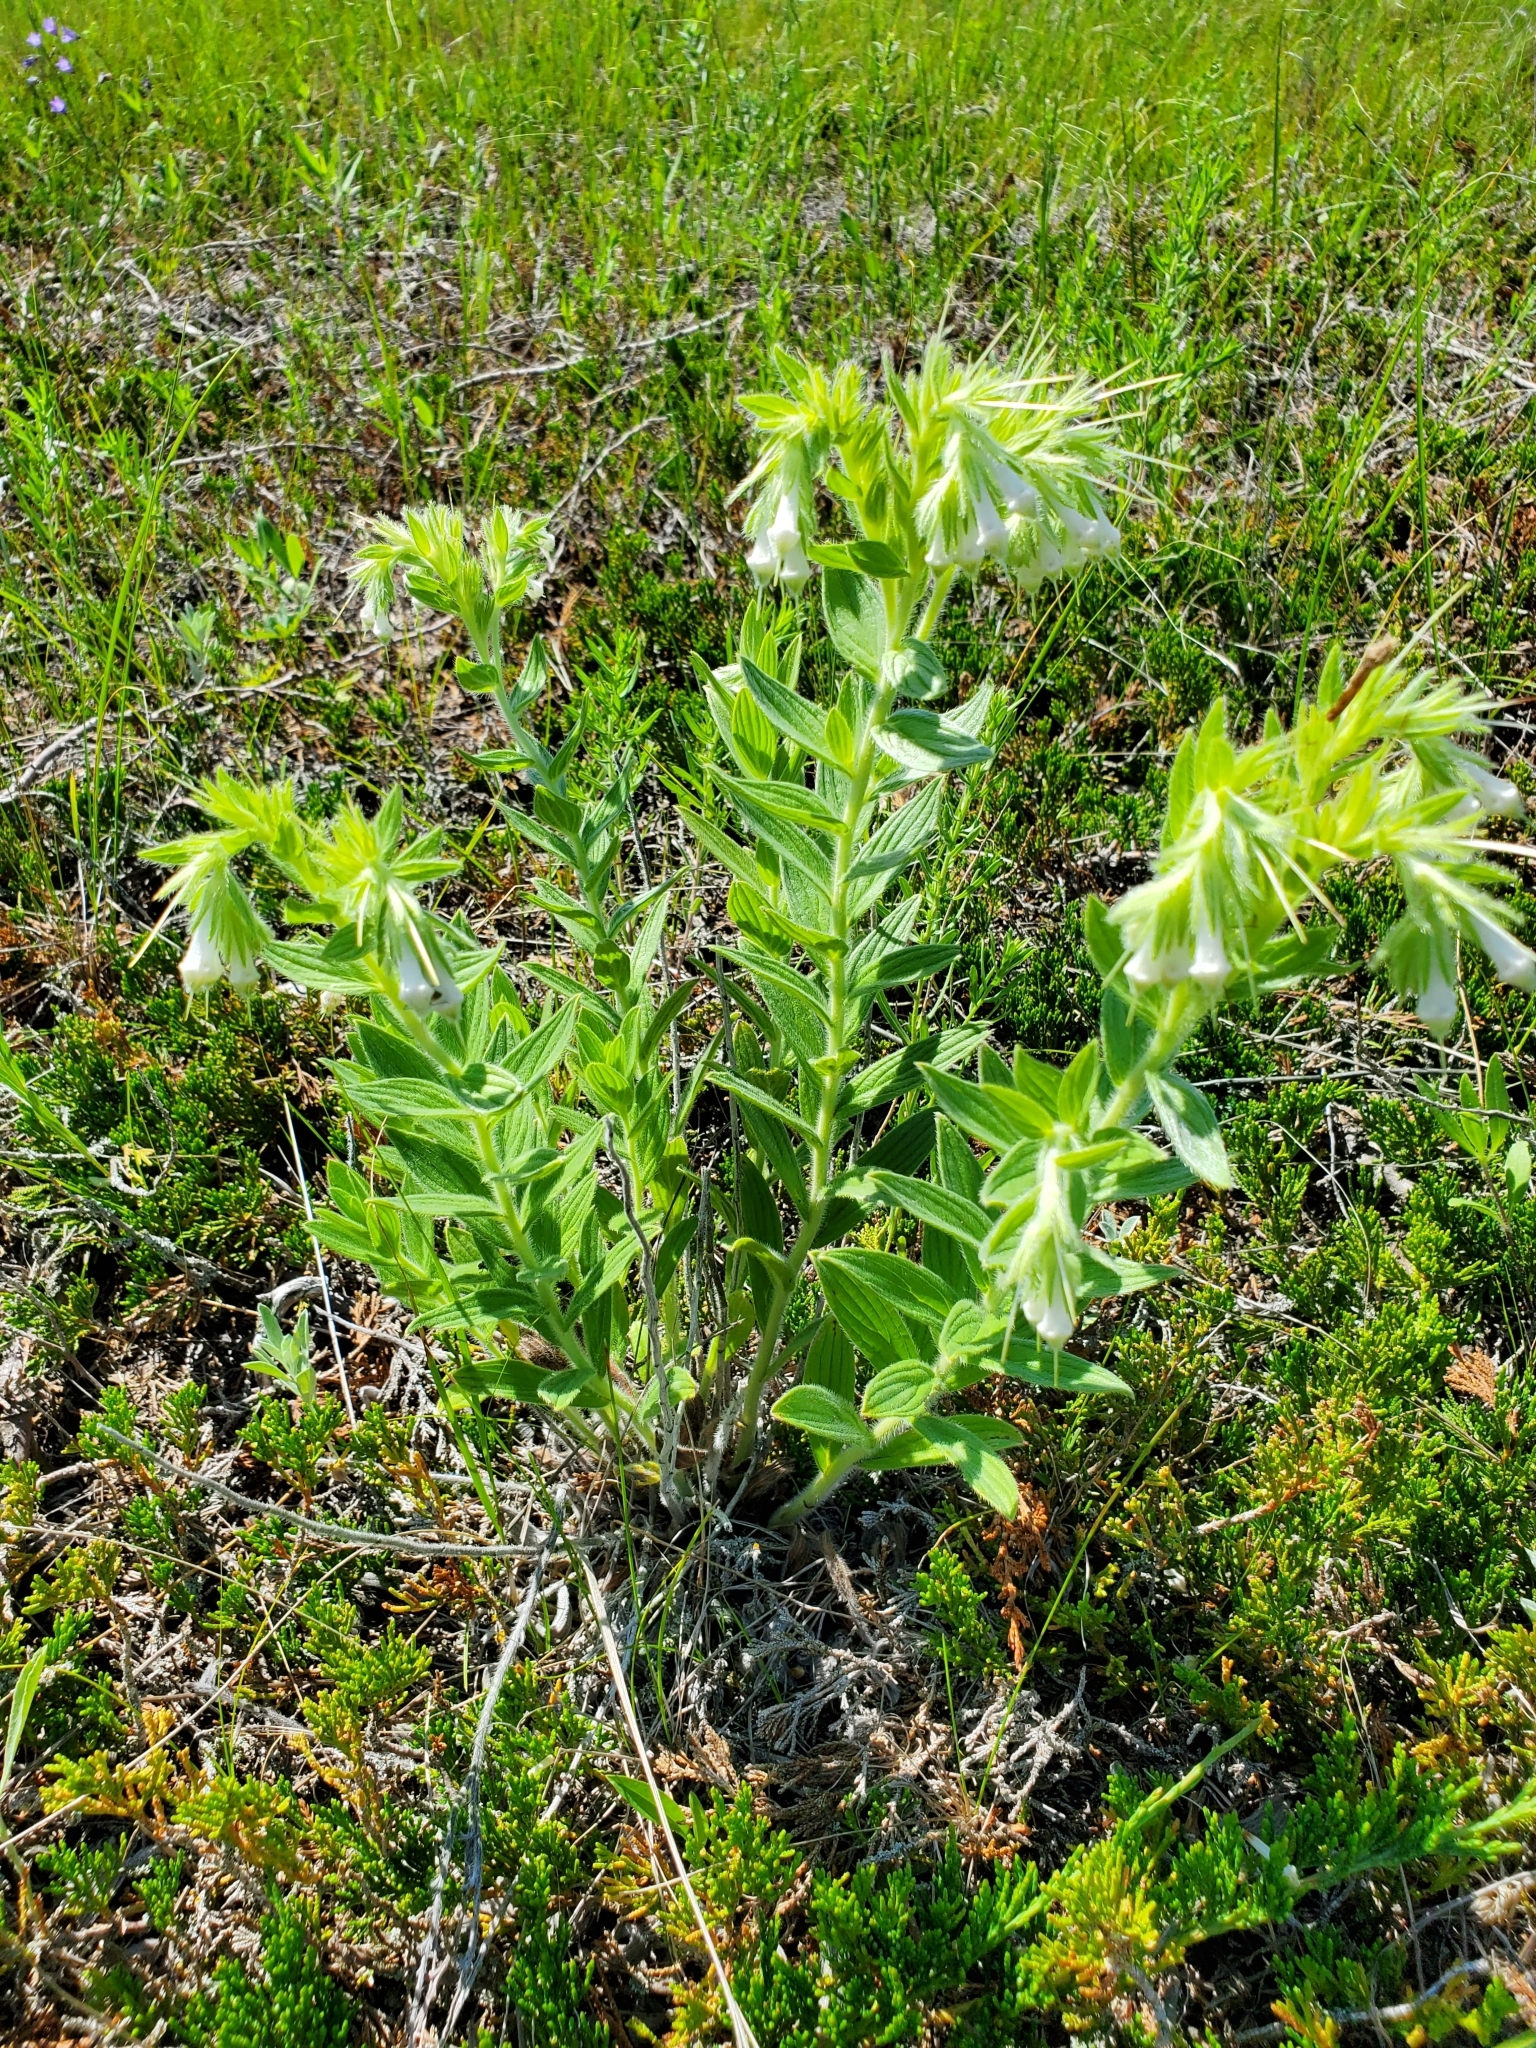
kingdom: Plantae
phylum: Tracheophyta
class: Magnoliopsida
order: Boraginales
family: Boraginaceae
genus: Lithospermum
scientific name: Lithospermum occidentale
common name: Western false gromwell
